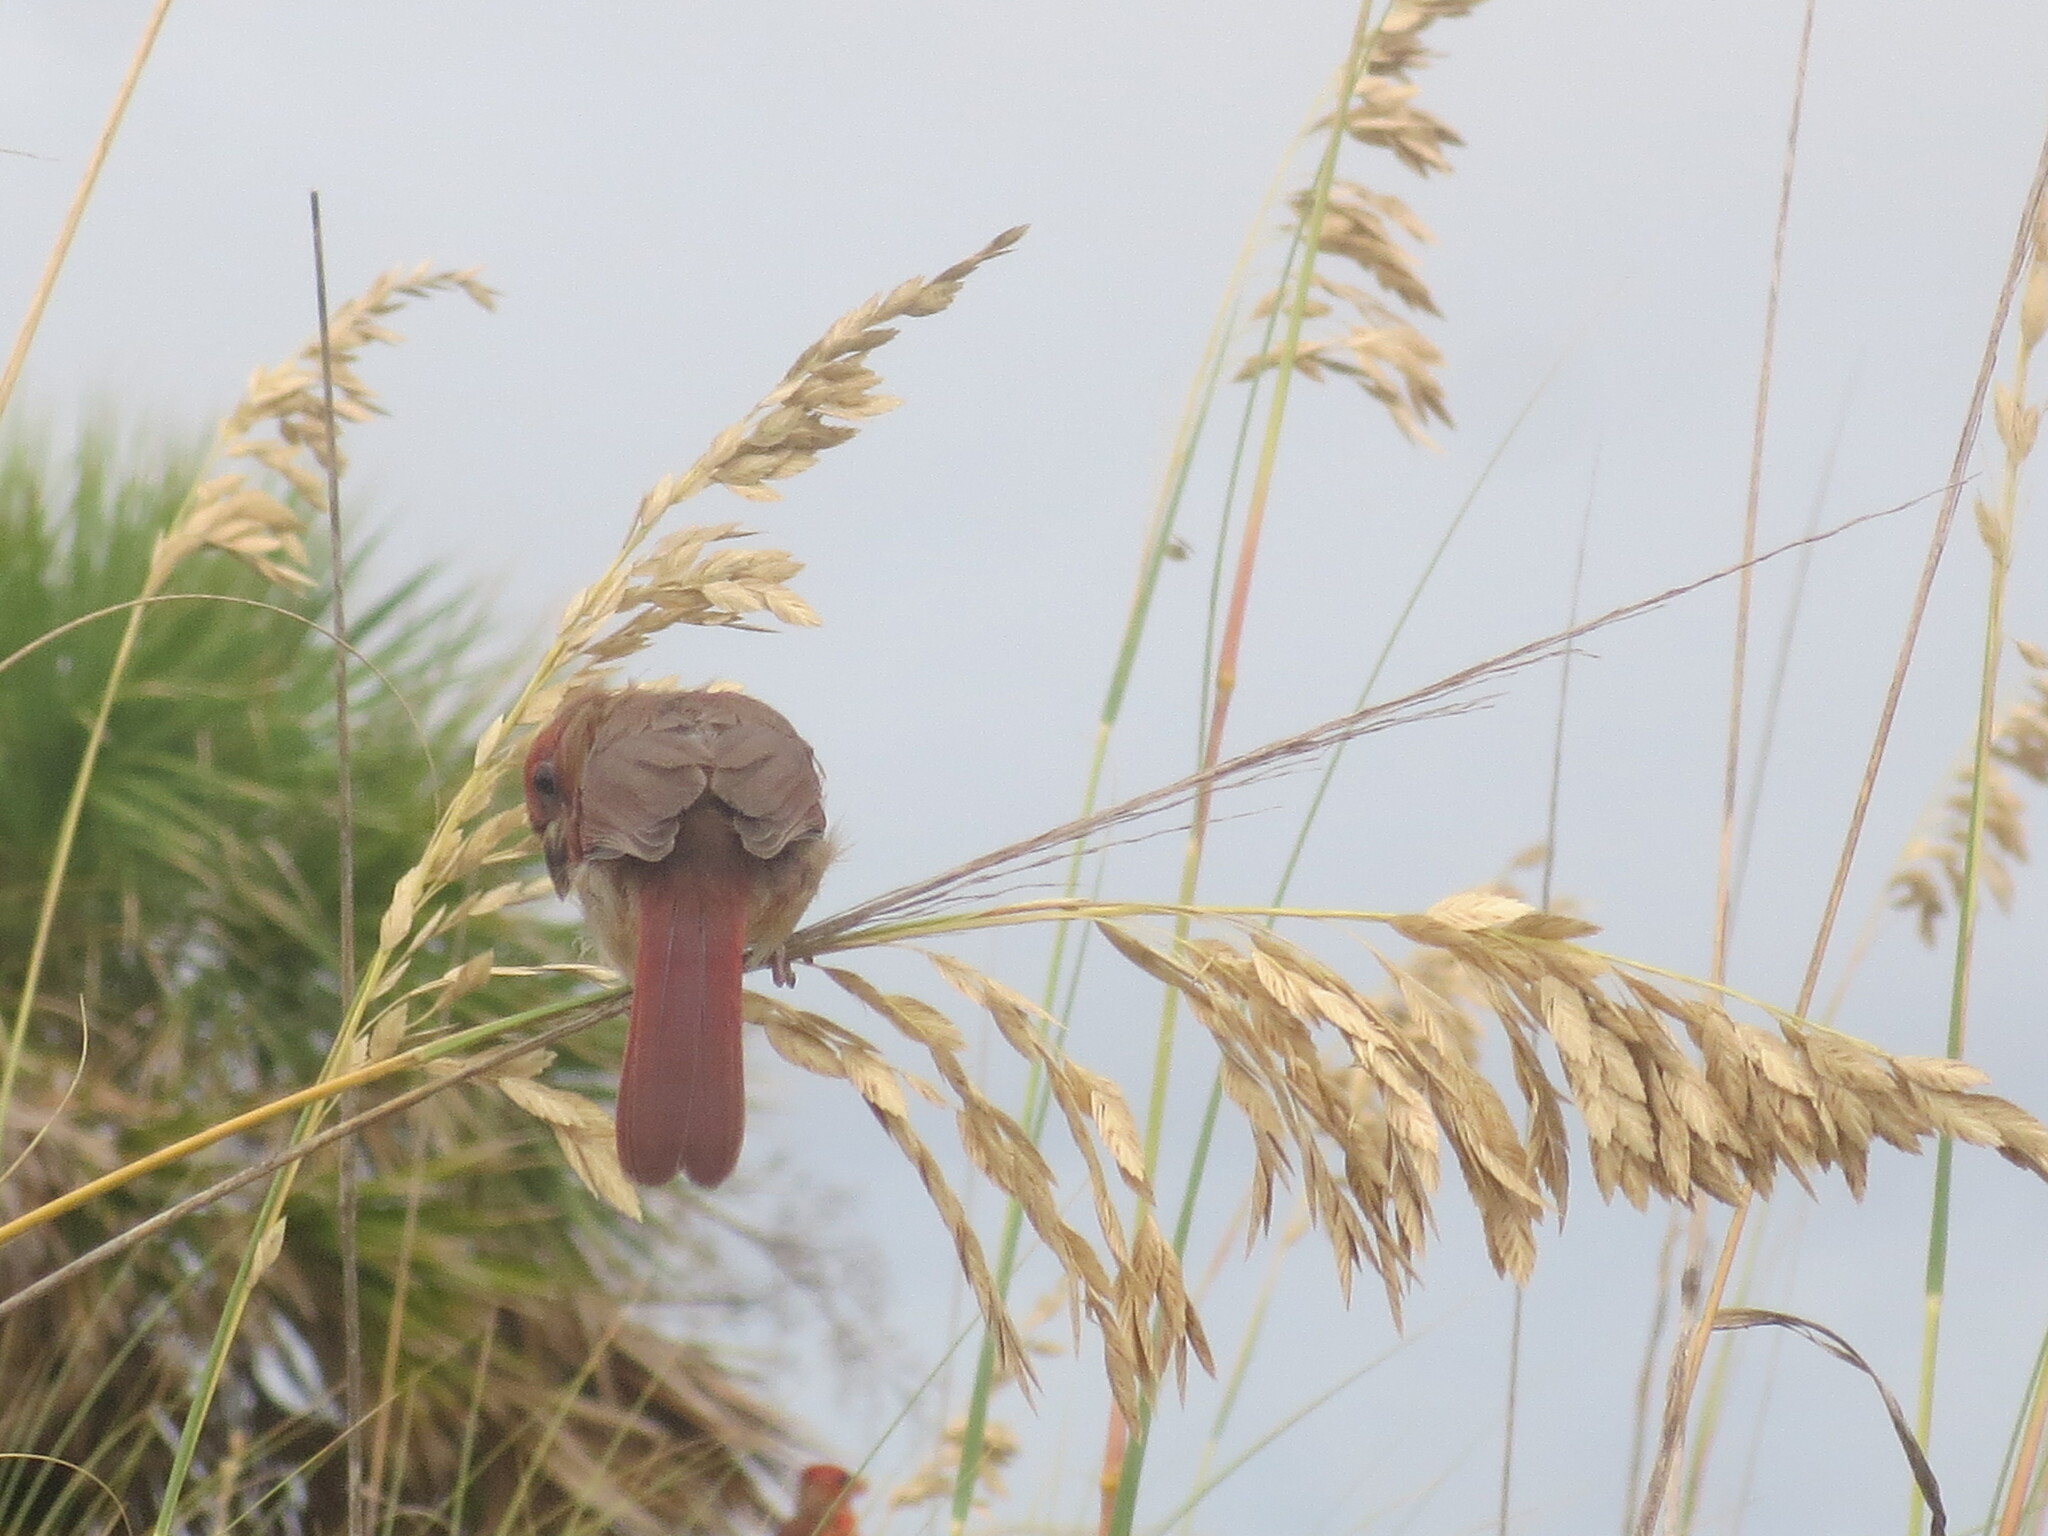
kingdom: Animalia
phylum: Chordata
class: Aves
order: Passeriformes
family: Cardinalidae
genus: Cardinalis
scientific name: Cardinalis cardinalis
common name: Northern cardinal
